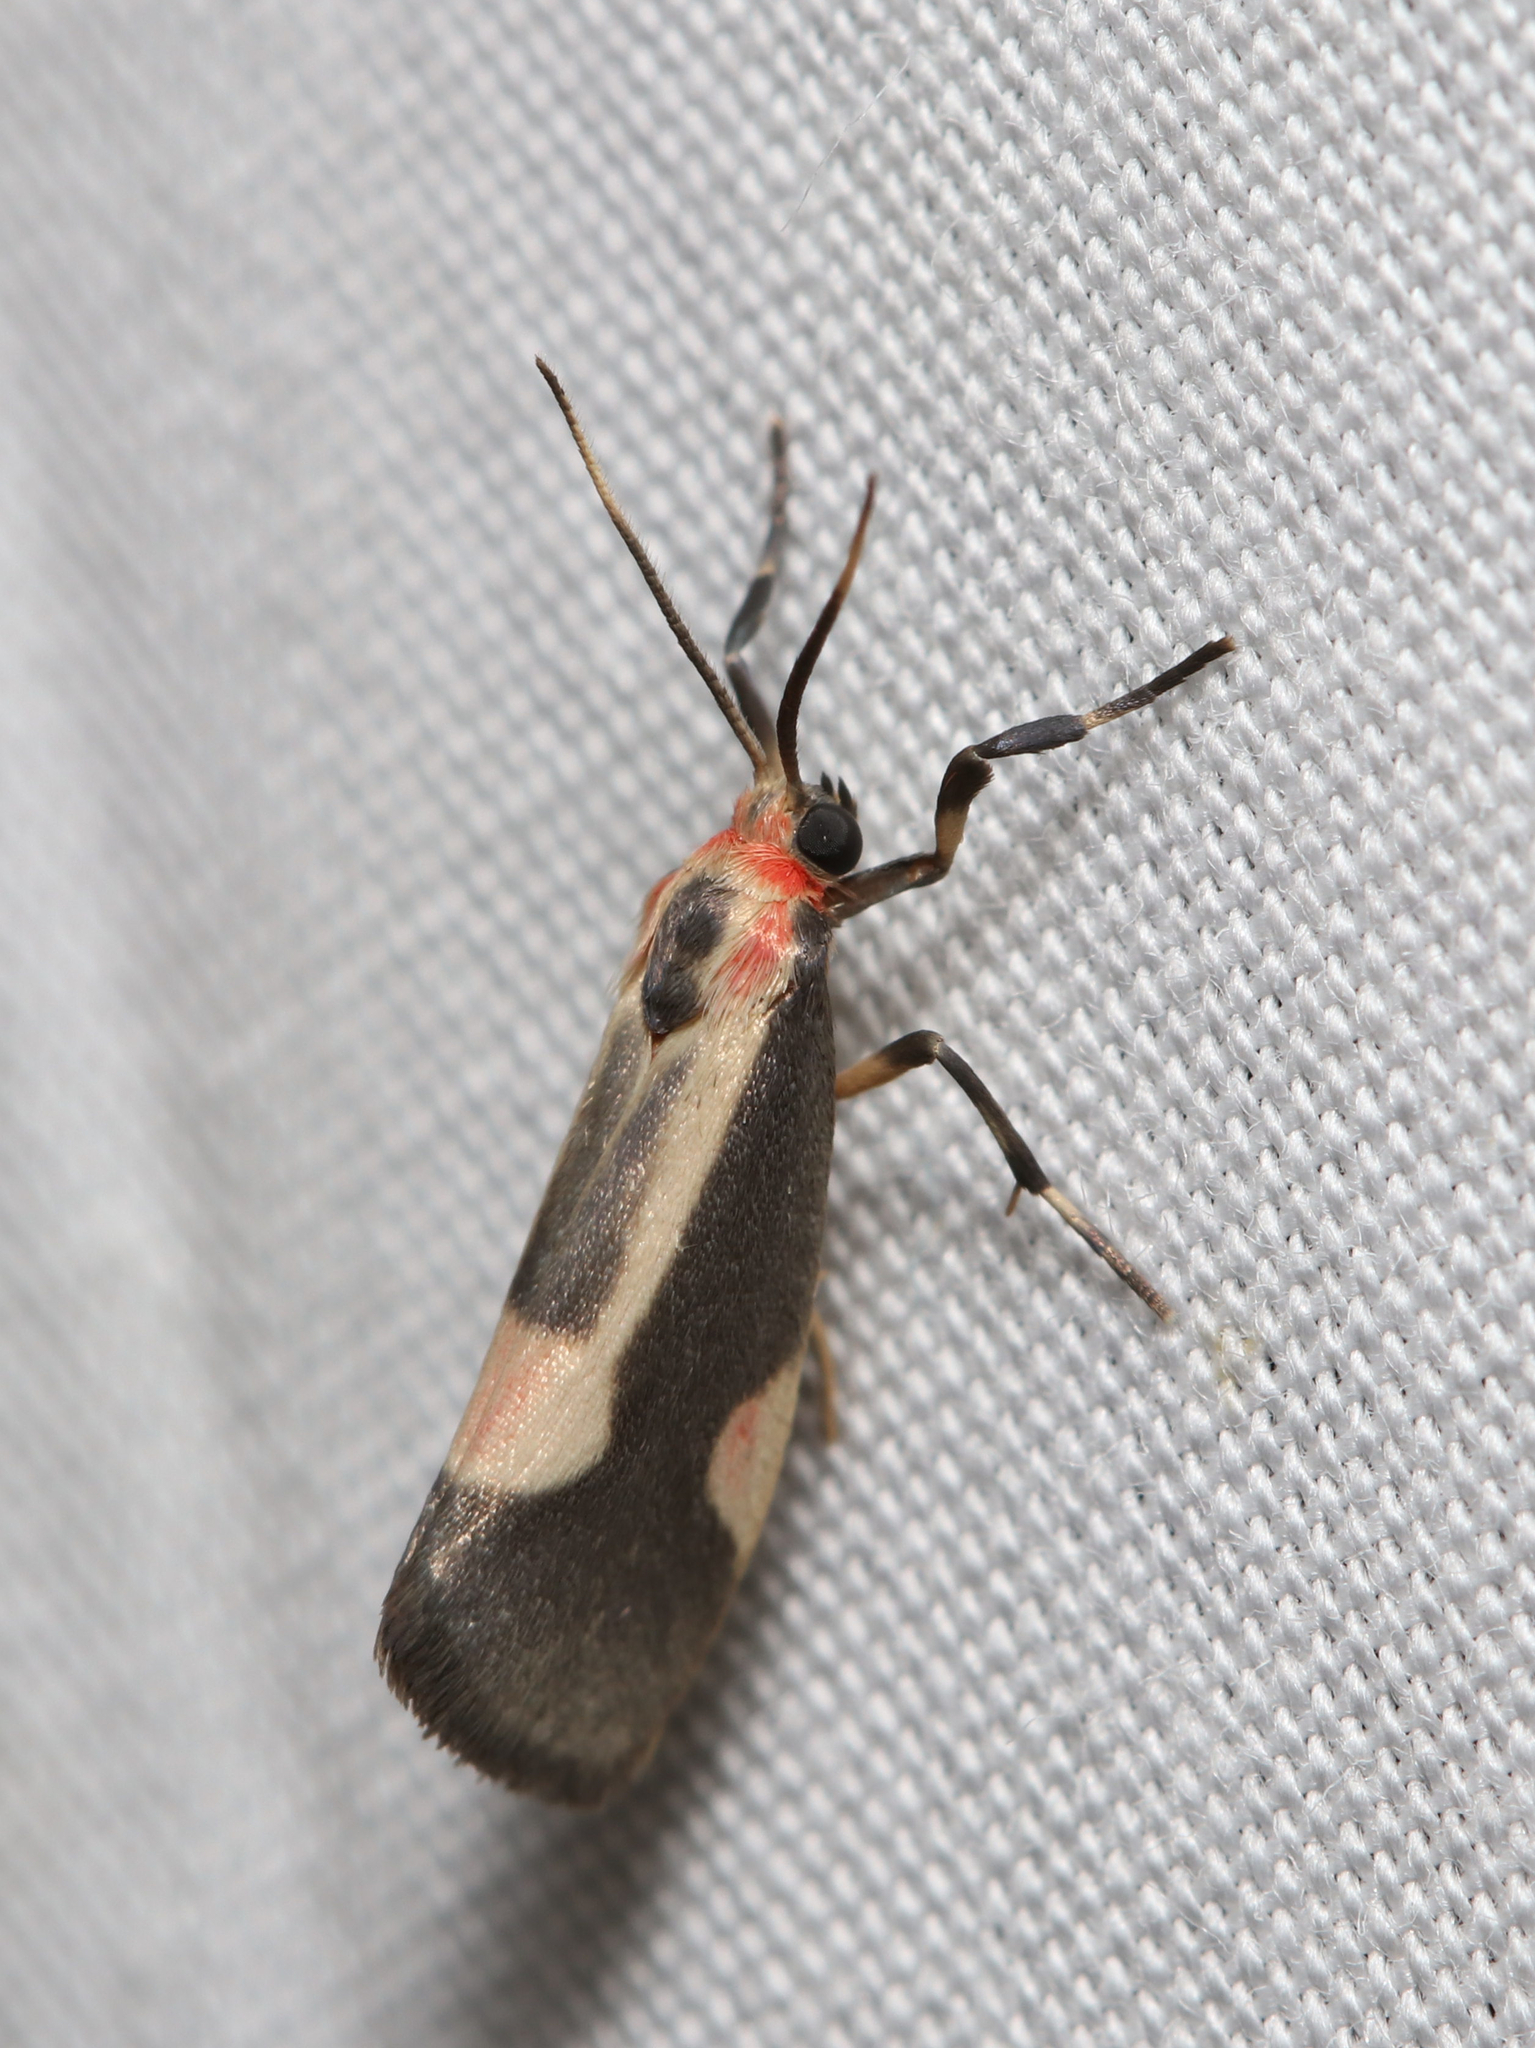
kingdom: Animalia
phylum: Arthropoda
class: Insecta
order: Lepidoptera
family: Erebidae
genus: Cisthene
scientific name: Cisthene packardii
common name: Packard's lichen moth
